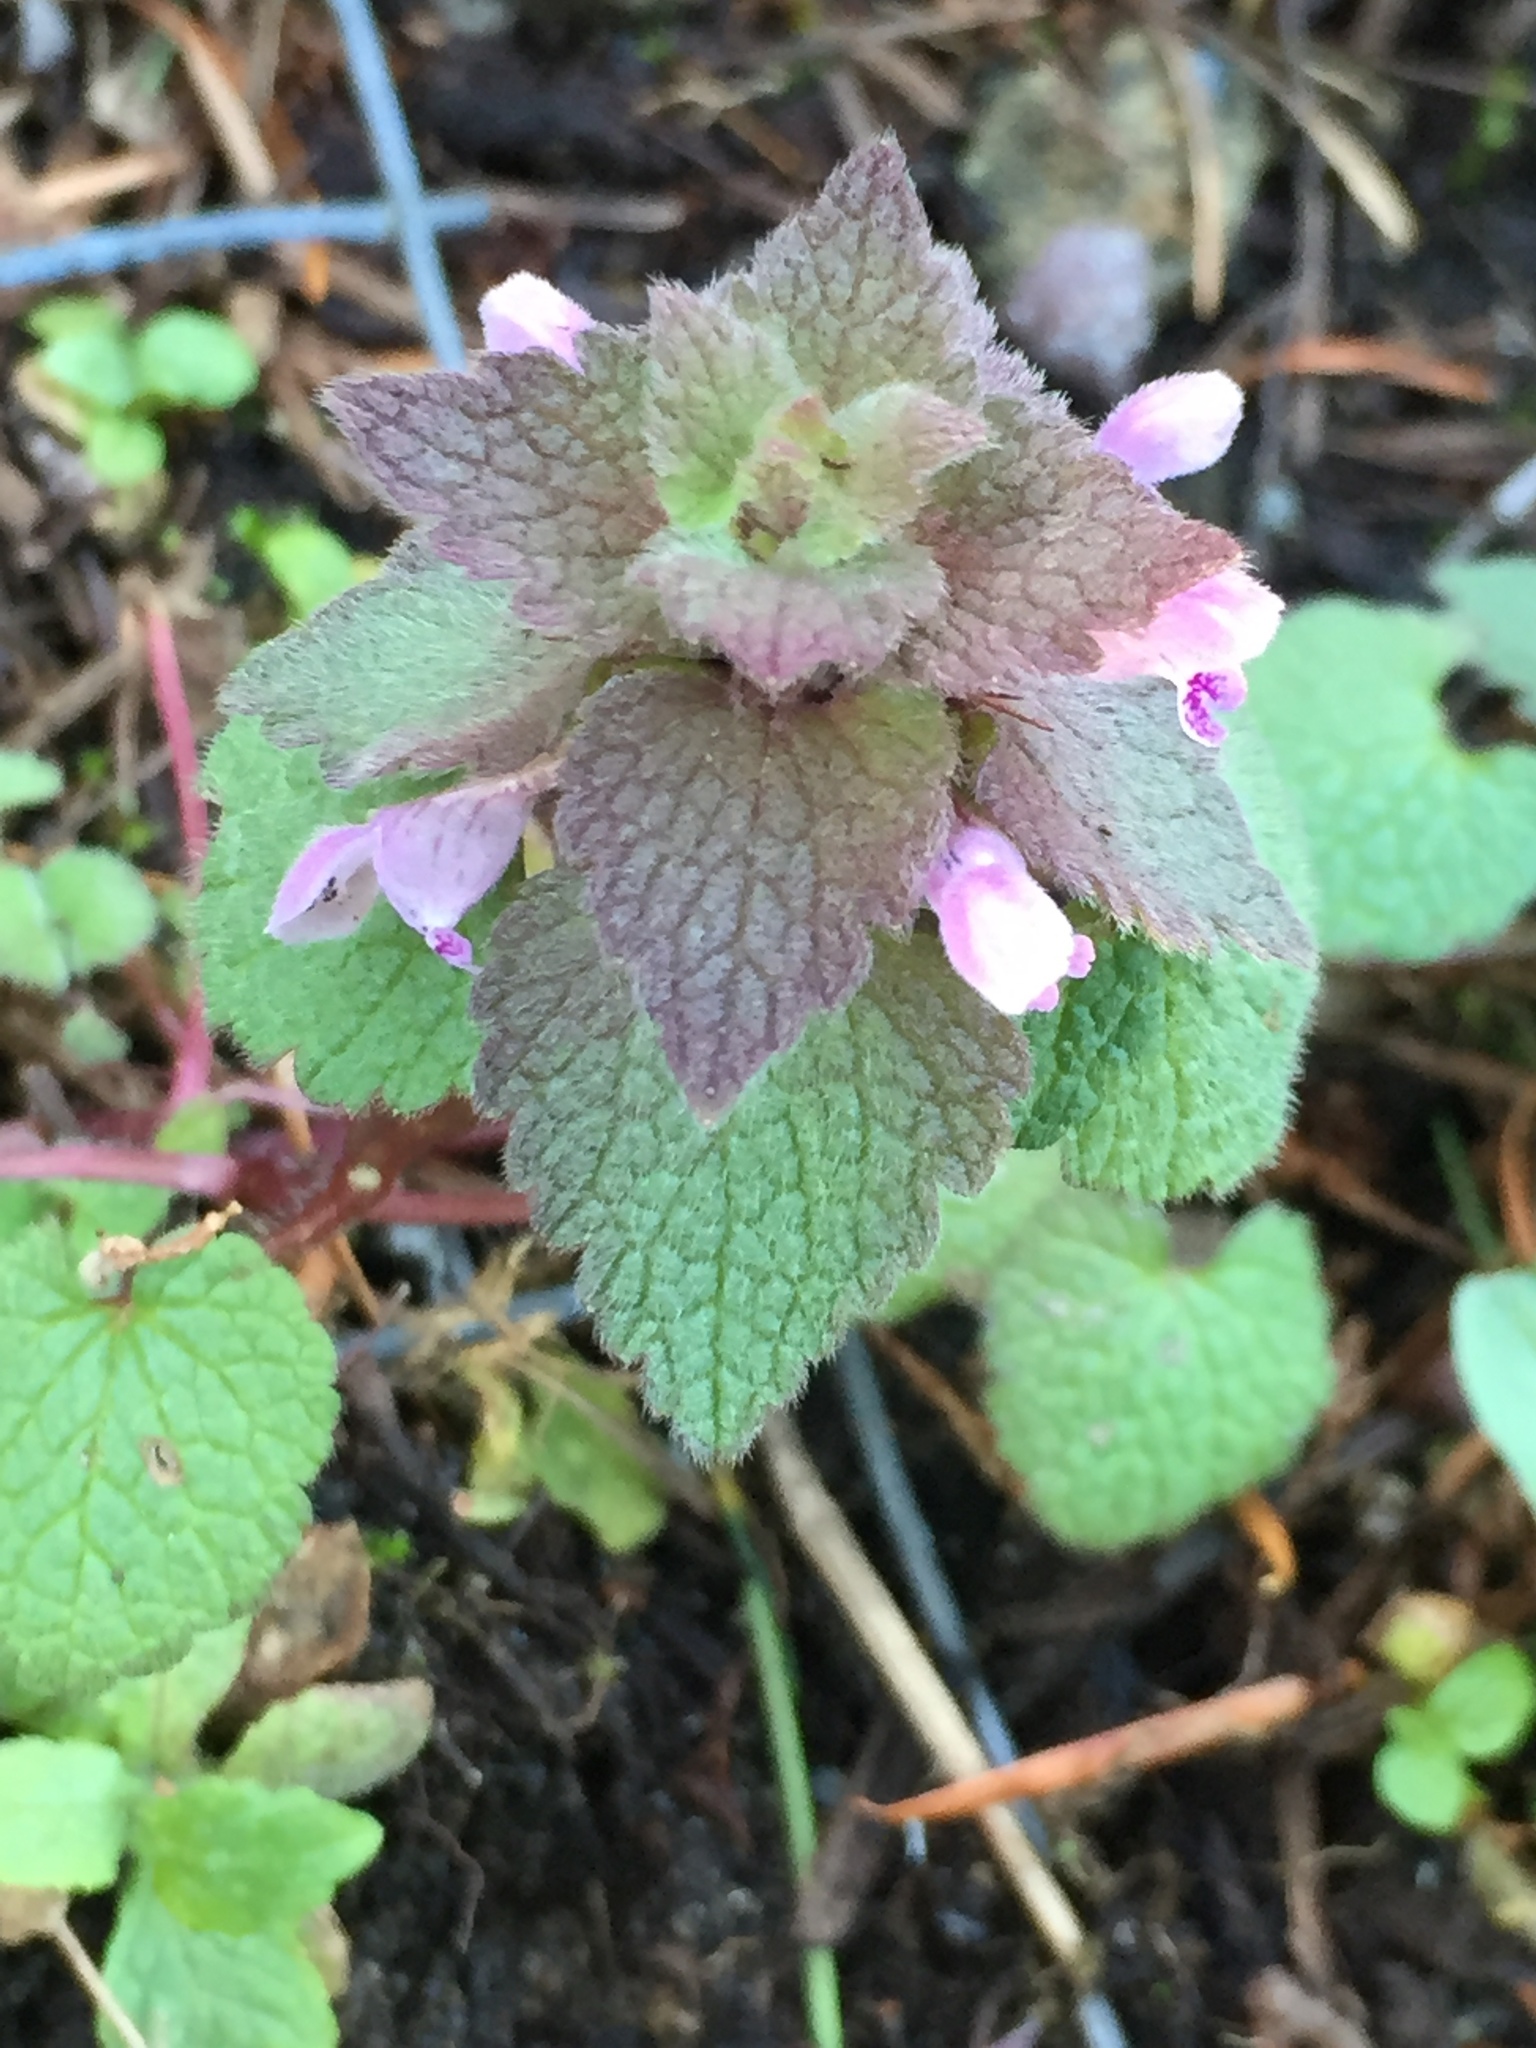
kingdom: Plantae
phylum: Tracheophyta
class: Magnoliopsida
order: Lamiales
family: Lamiaceae
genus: Lamium
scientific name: Lamium purpureum
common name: Red dead-nettle
